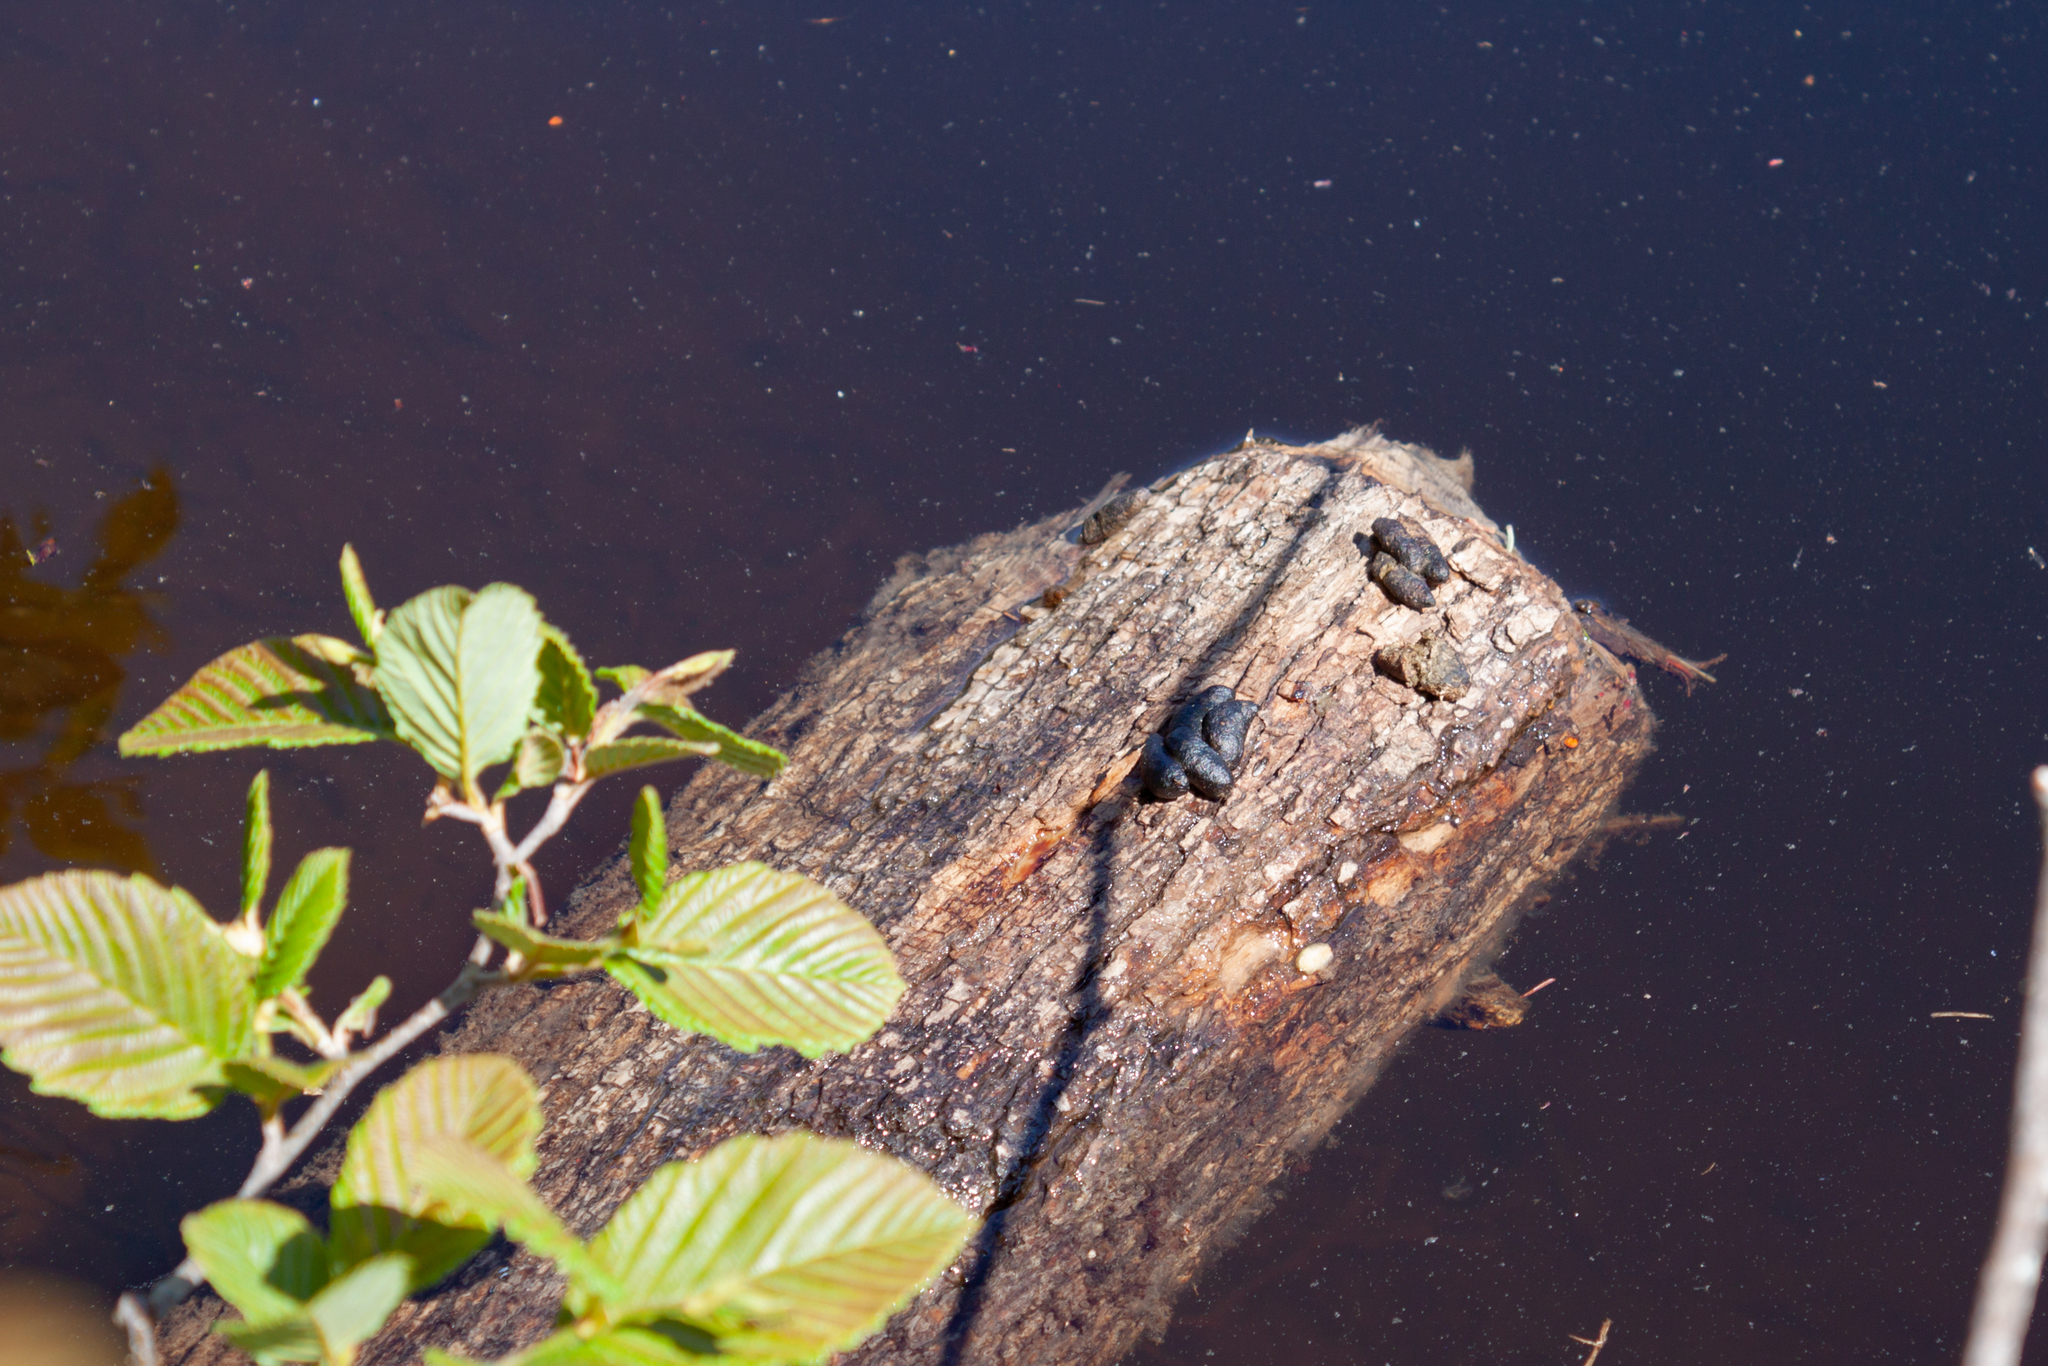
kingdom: Animalia
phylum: Chordata
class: Mammalia
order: Rodentia
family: Cricetidae
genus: Ondatra
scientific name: Ondatra zibethicus
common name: Muskrat
